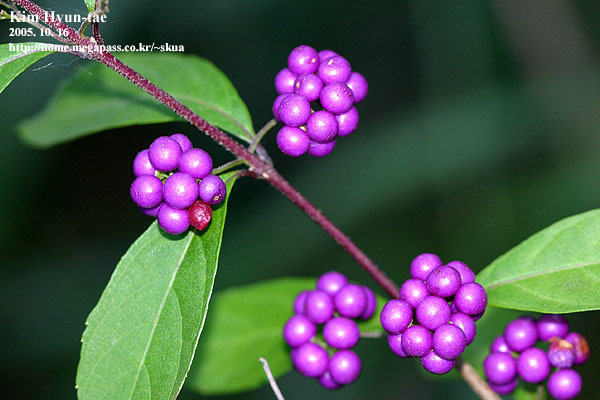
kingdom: Plantae
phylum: Tracheophyta
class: Magnoliopsida
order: Lamiales
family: Lamiaceae
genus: Callicarpa
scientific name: Callicarpa dichotoma
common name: Purple beauty-berry
